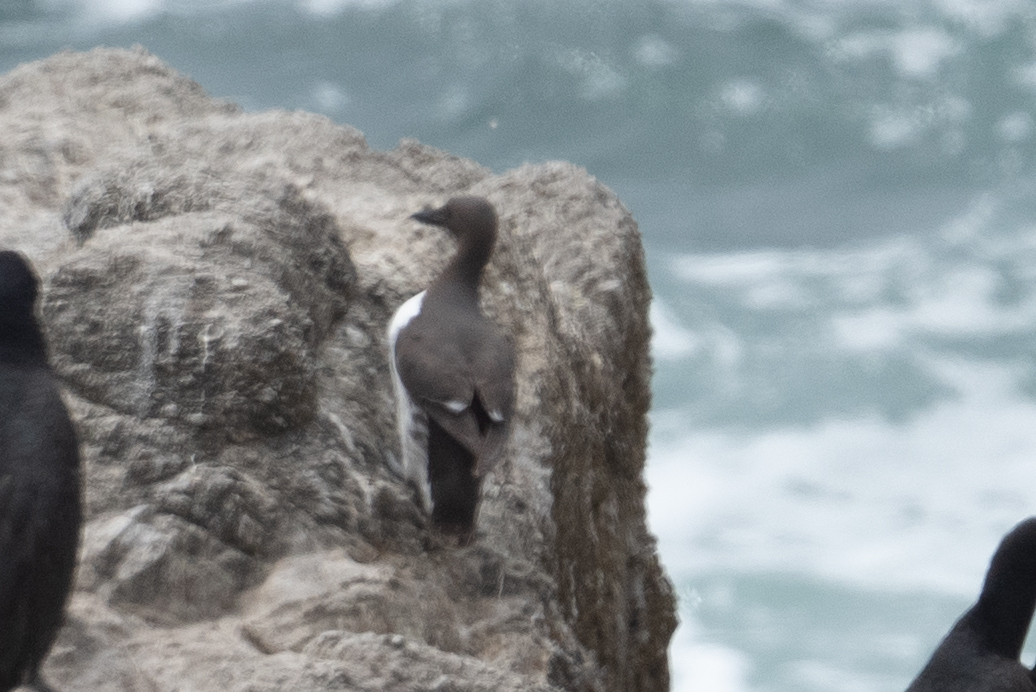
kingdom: Animalia
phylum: Chordata
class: Aves
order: Charadriiformes
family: Alcidae
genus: Uria
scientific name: Uria aalge
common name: Common murre
